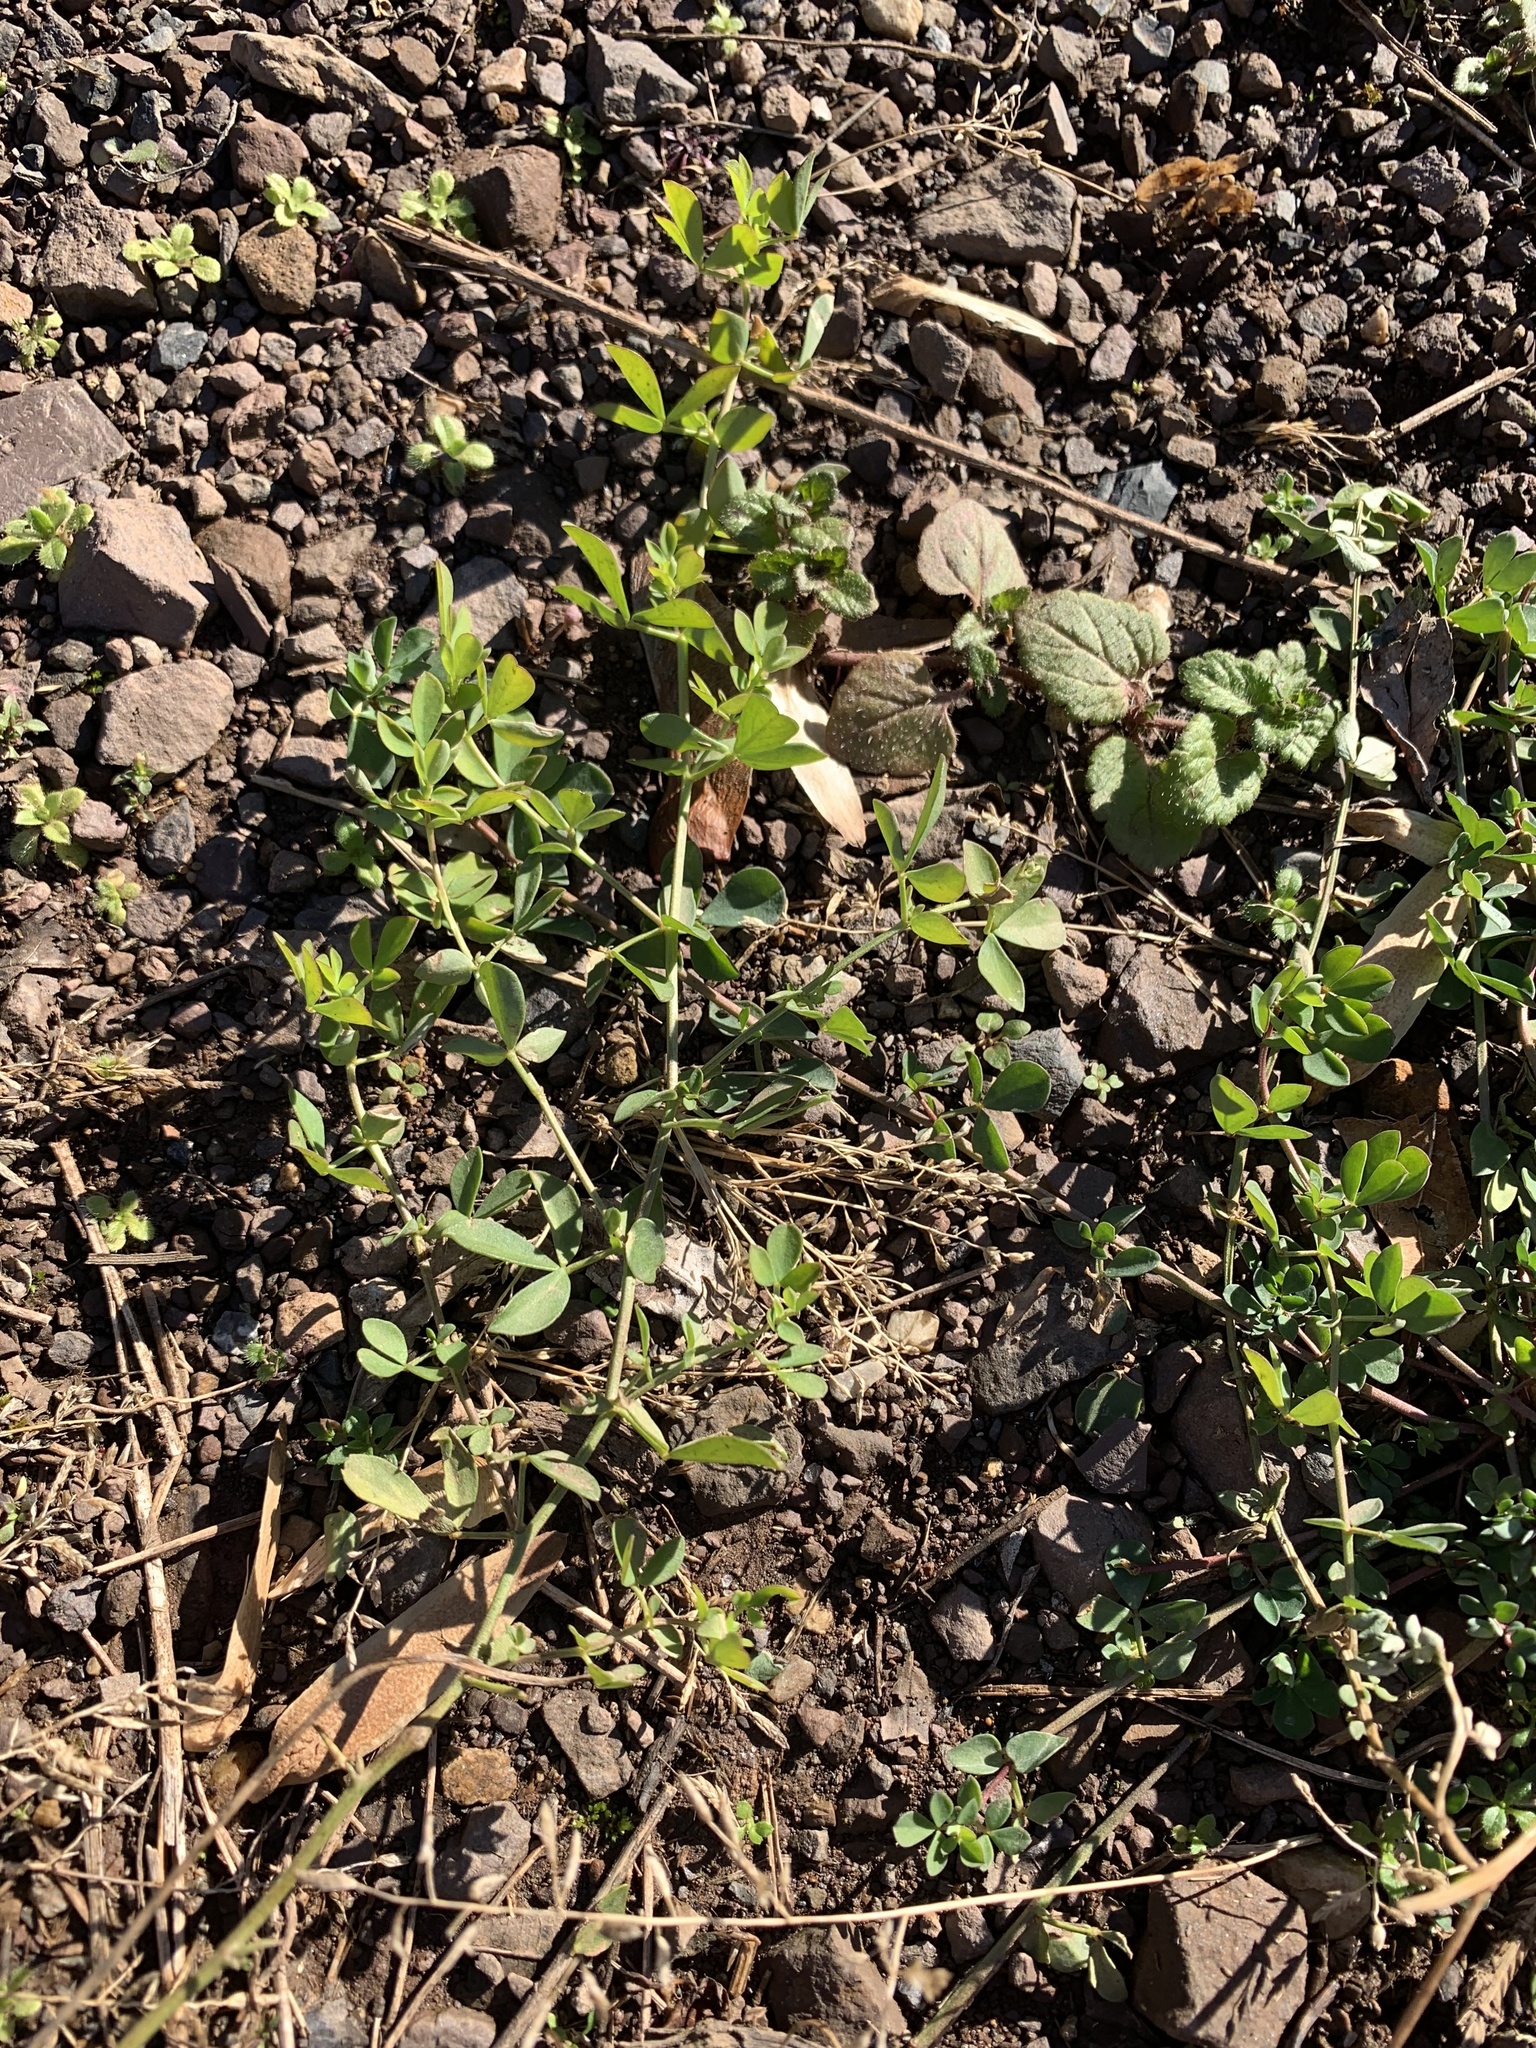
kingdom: Plantae
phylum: Tracheophyta
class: Magnoliopsida
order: Fabales
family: Fabaceae
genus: Lotus
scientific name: Lotus corniculatus
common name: Common bird's-foot-trefoil
